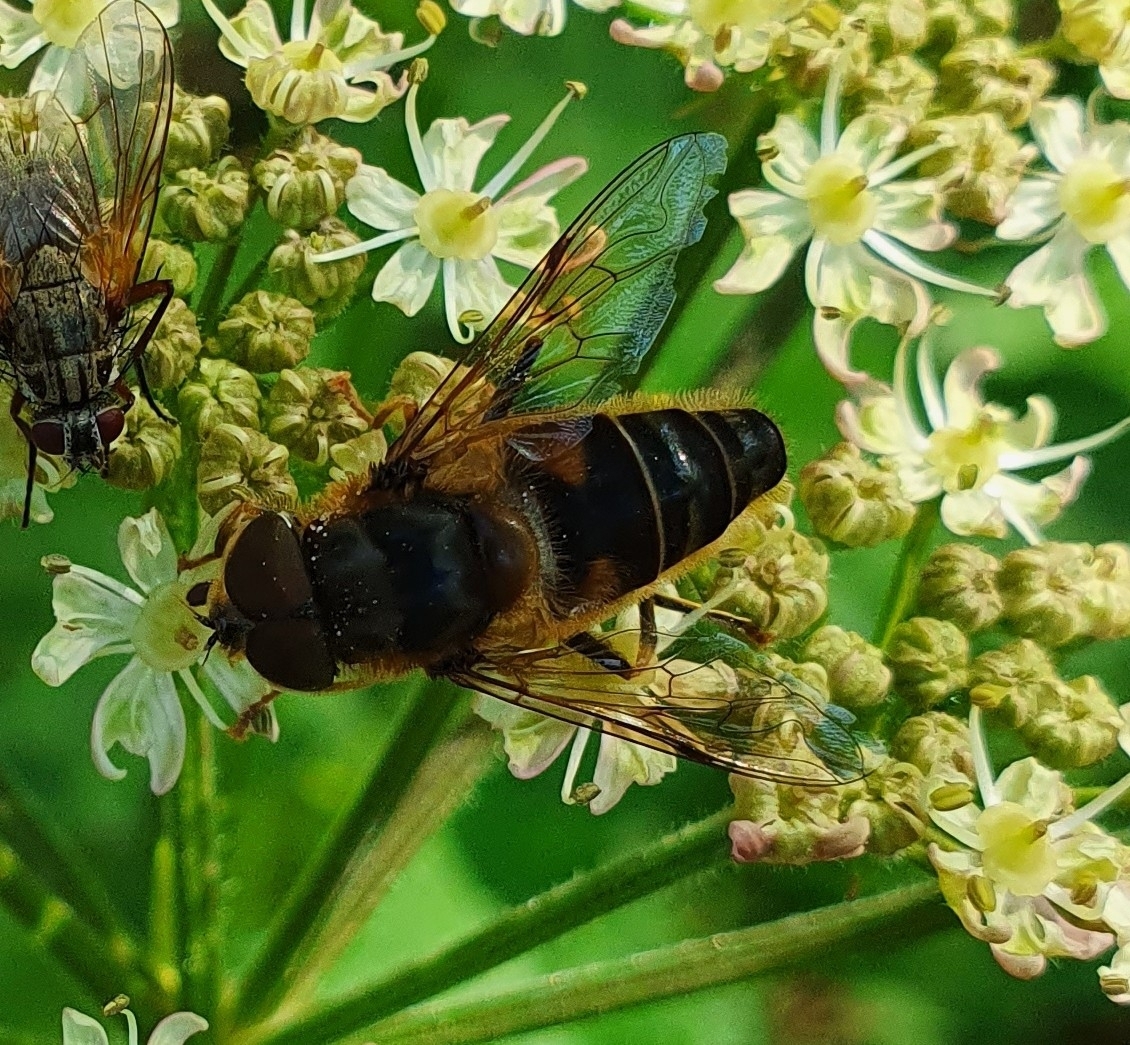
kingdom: Animalia
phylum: Arthropoda
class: Insecta
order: Diptera
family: Syrphidae
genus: Eristalis
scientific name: Eristalis pertinax
